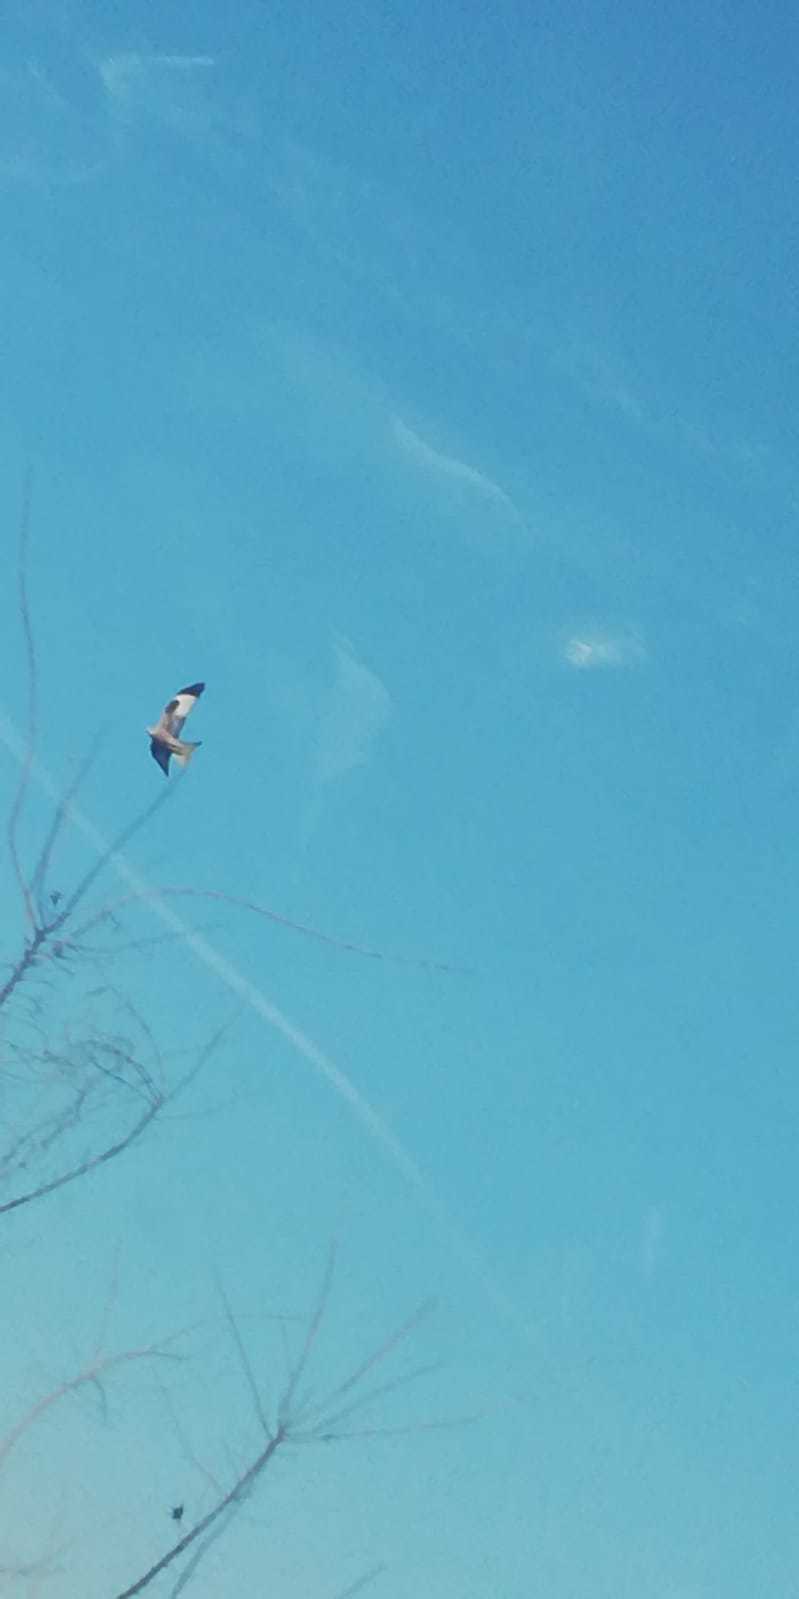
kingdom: Animalia
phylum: Chordata
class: Aves
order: Accipitriformes
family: Accipitridae
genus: Milvus
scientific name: Milvus milvus
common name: Red kite
